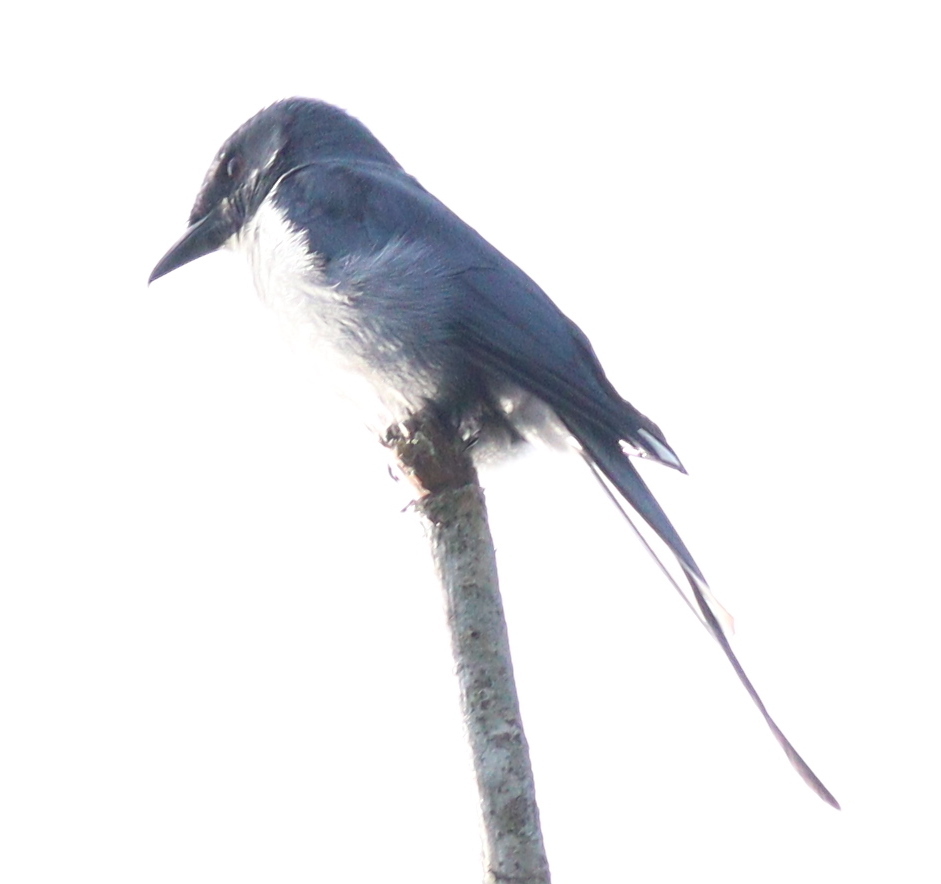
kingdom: Animalia
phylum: Chordata
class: Aves
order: Passeriformes
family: Dicruridae
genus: Dicrurus
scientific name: Dicrurus leucophaeus
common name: Ashy drongo
